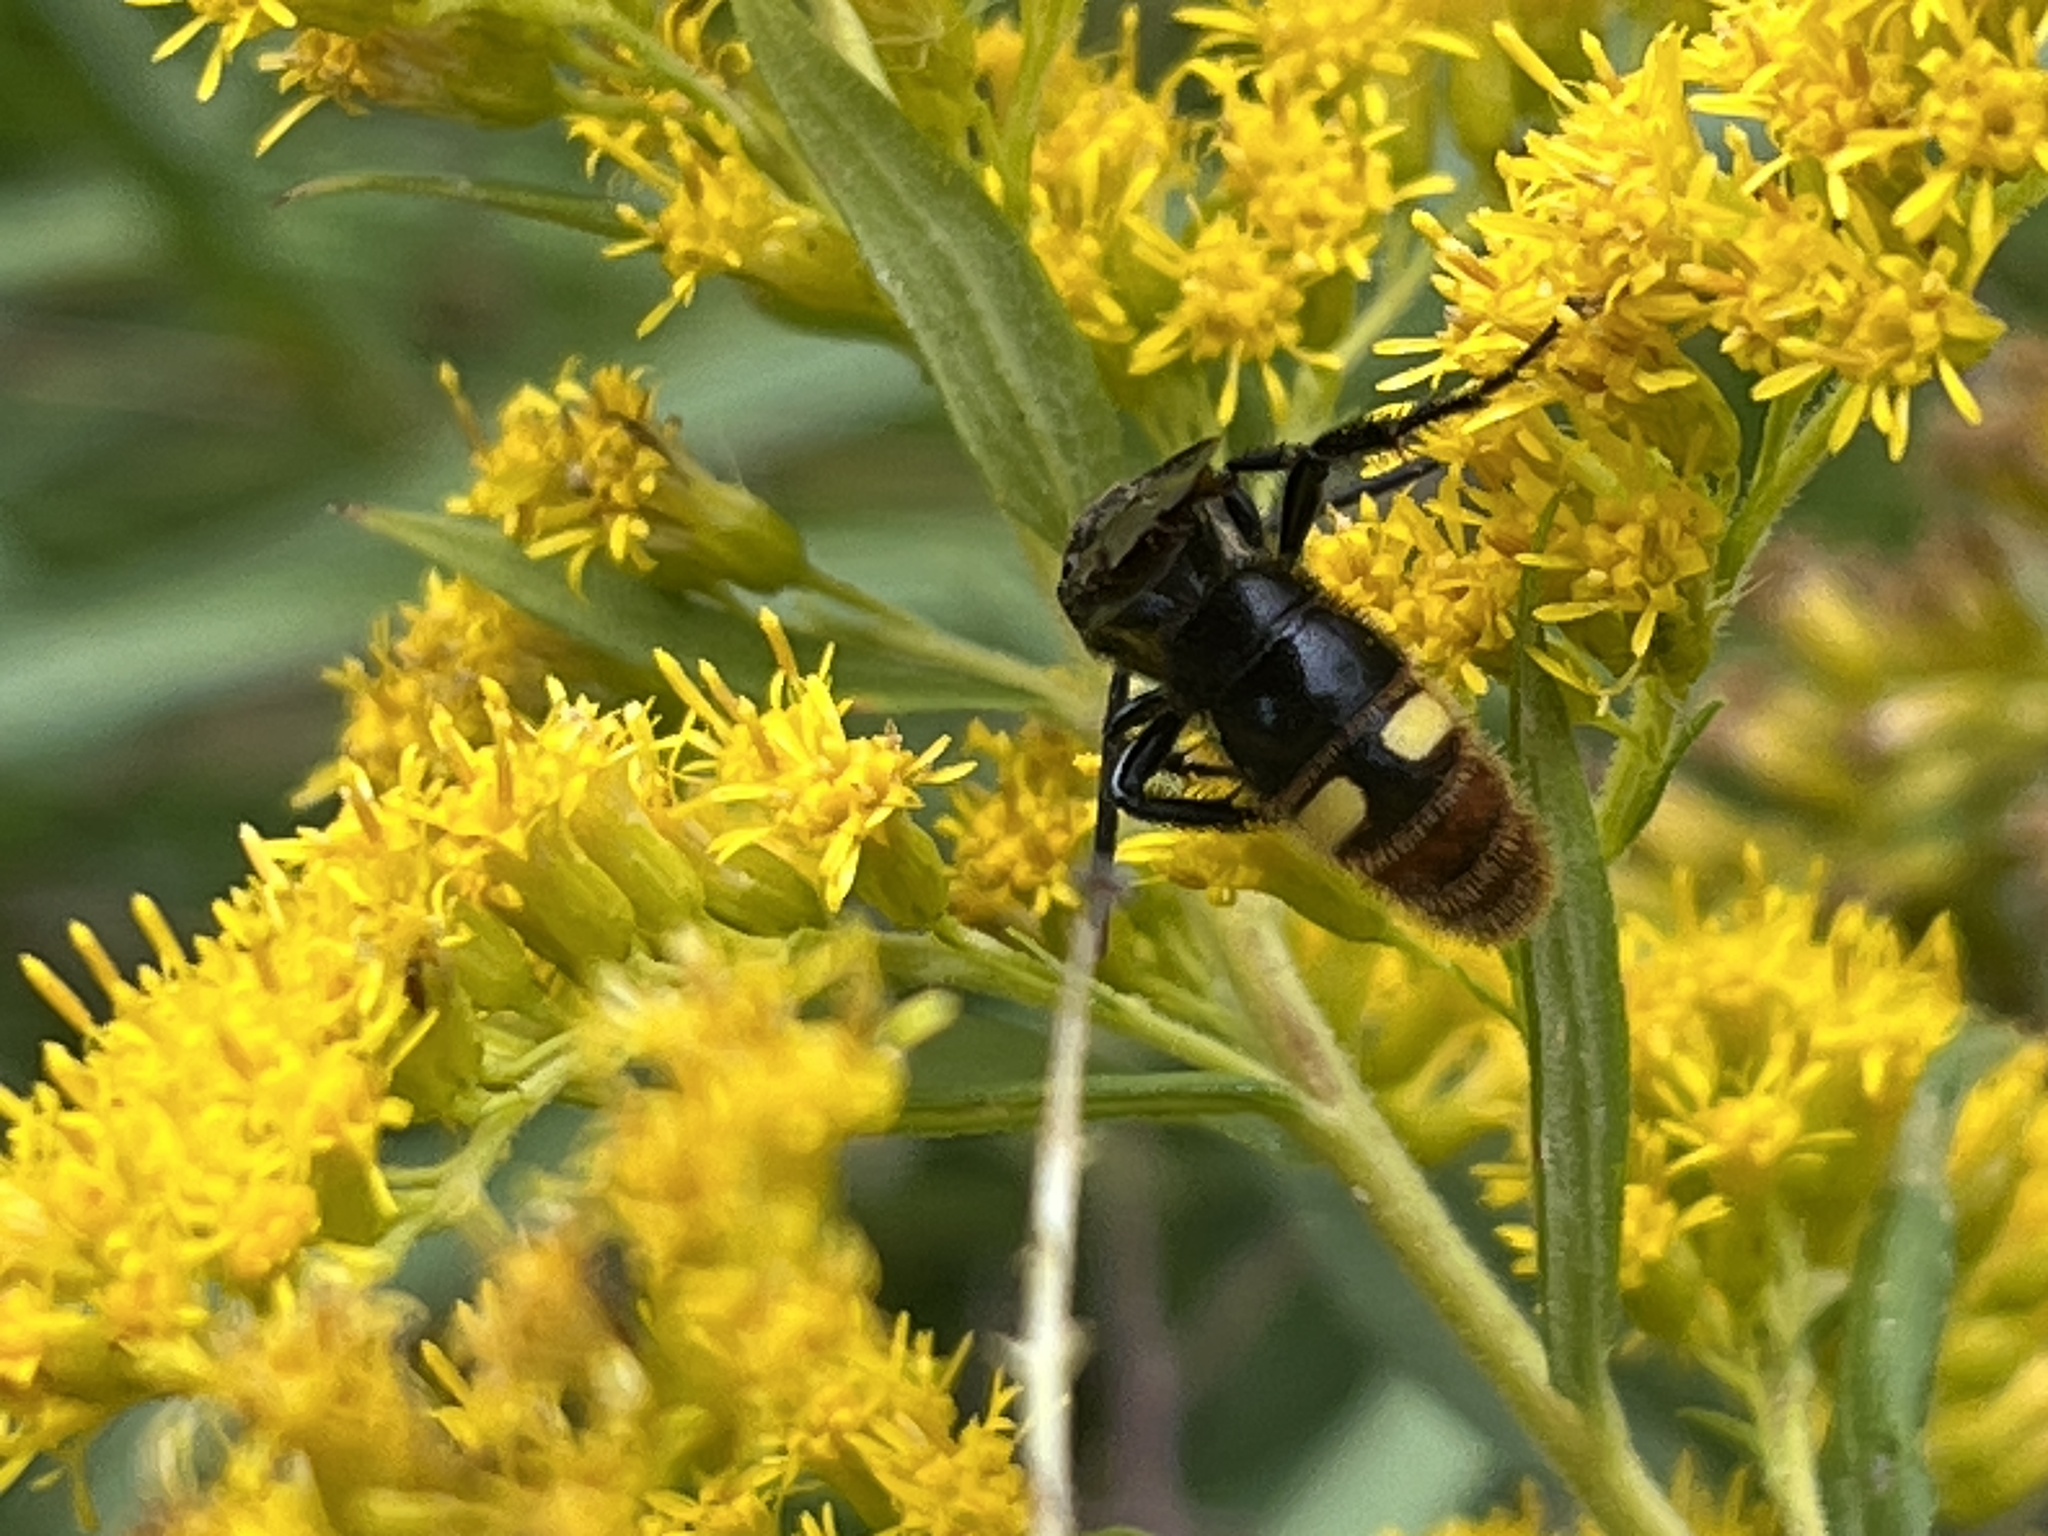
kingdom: Animalia
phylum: Arthropoda
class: Insecta
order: Hymenoptera
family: Scoliidae
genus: Scolia
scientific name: Scolia dubia
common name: Blue-winged scoliid wasp
